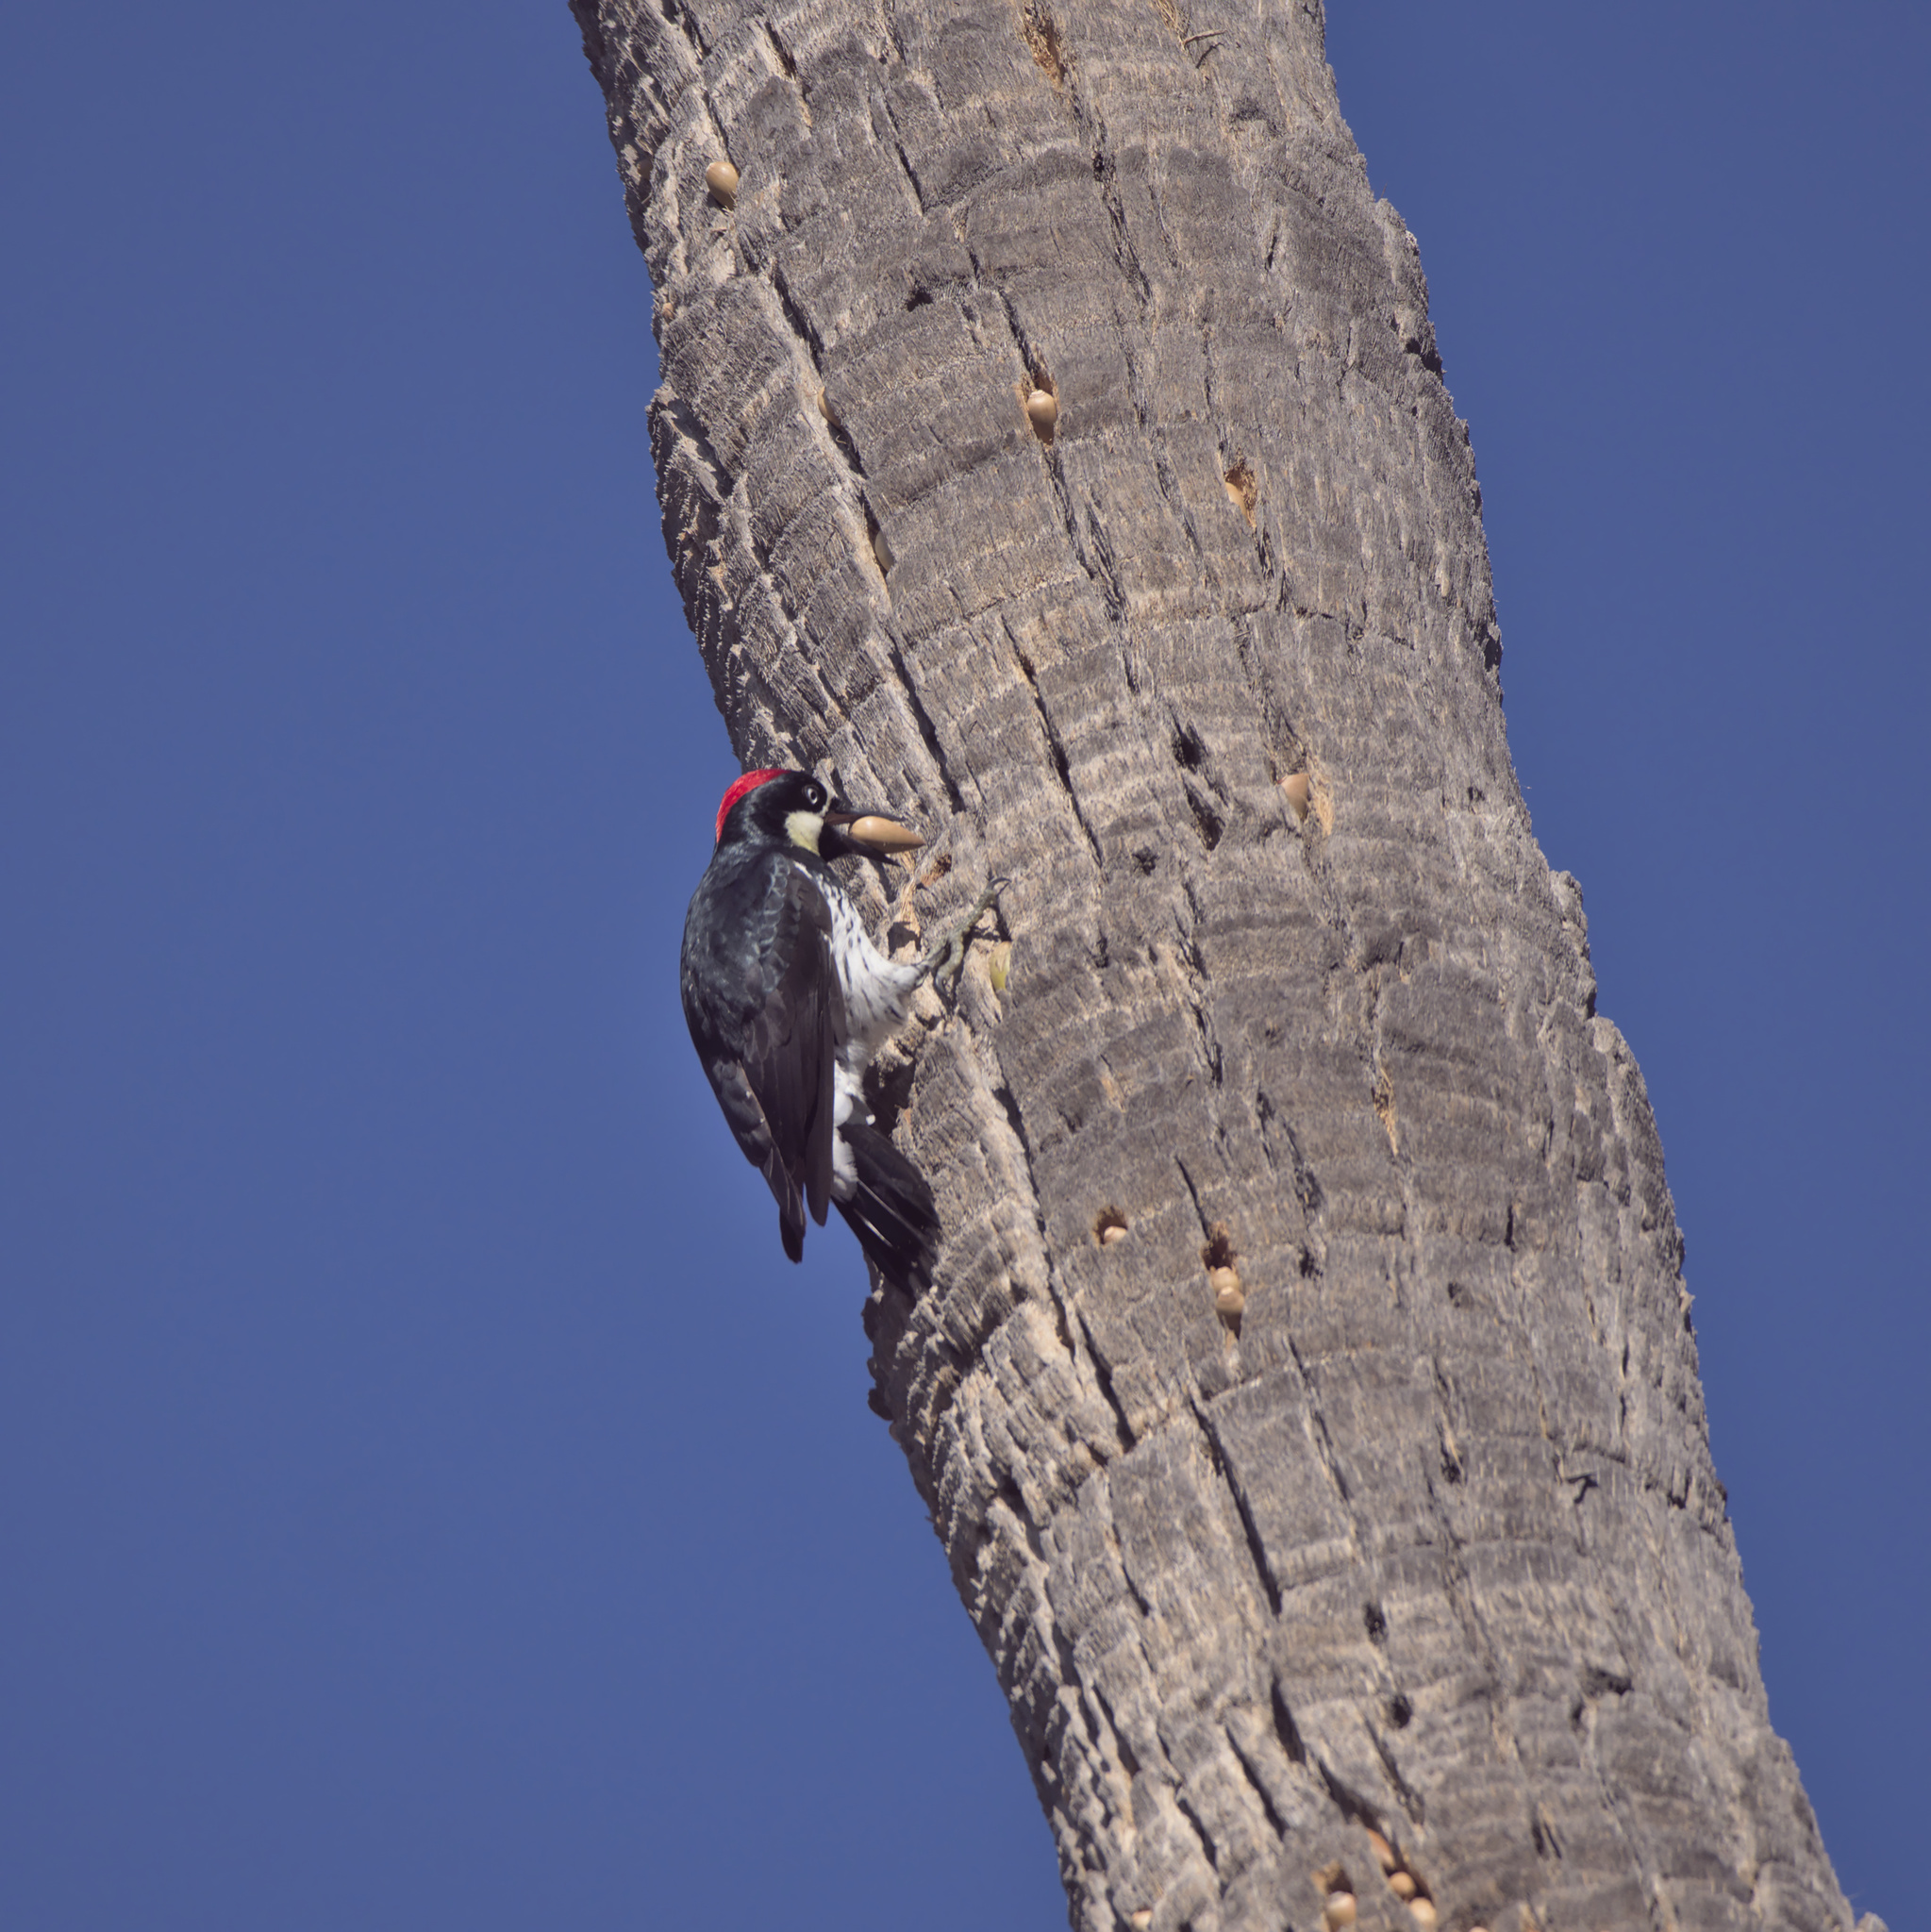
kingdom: Animalia
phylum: Chordata
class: Aves
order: Piciformes
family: Picidae
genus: Melanerpes
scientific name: Melanerpes formicivorus
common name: Acorn woodpecker
